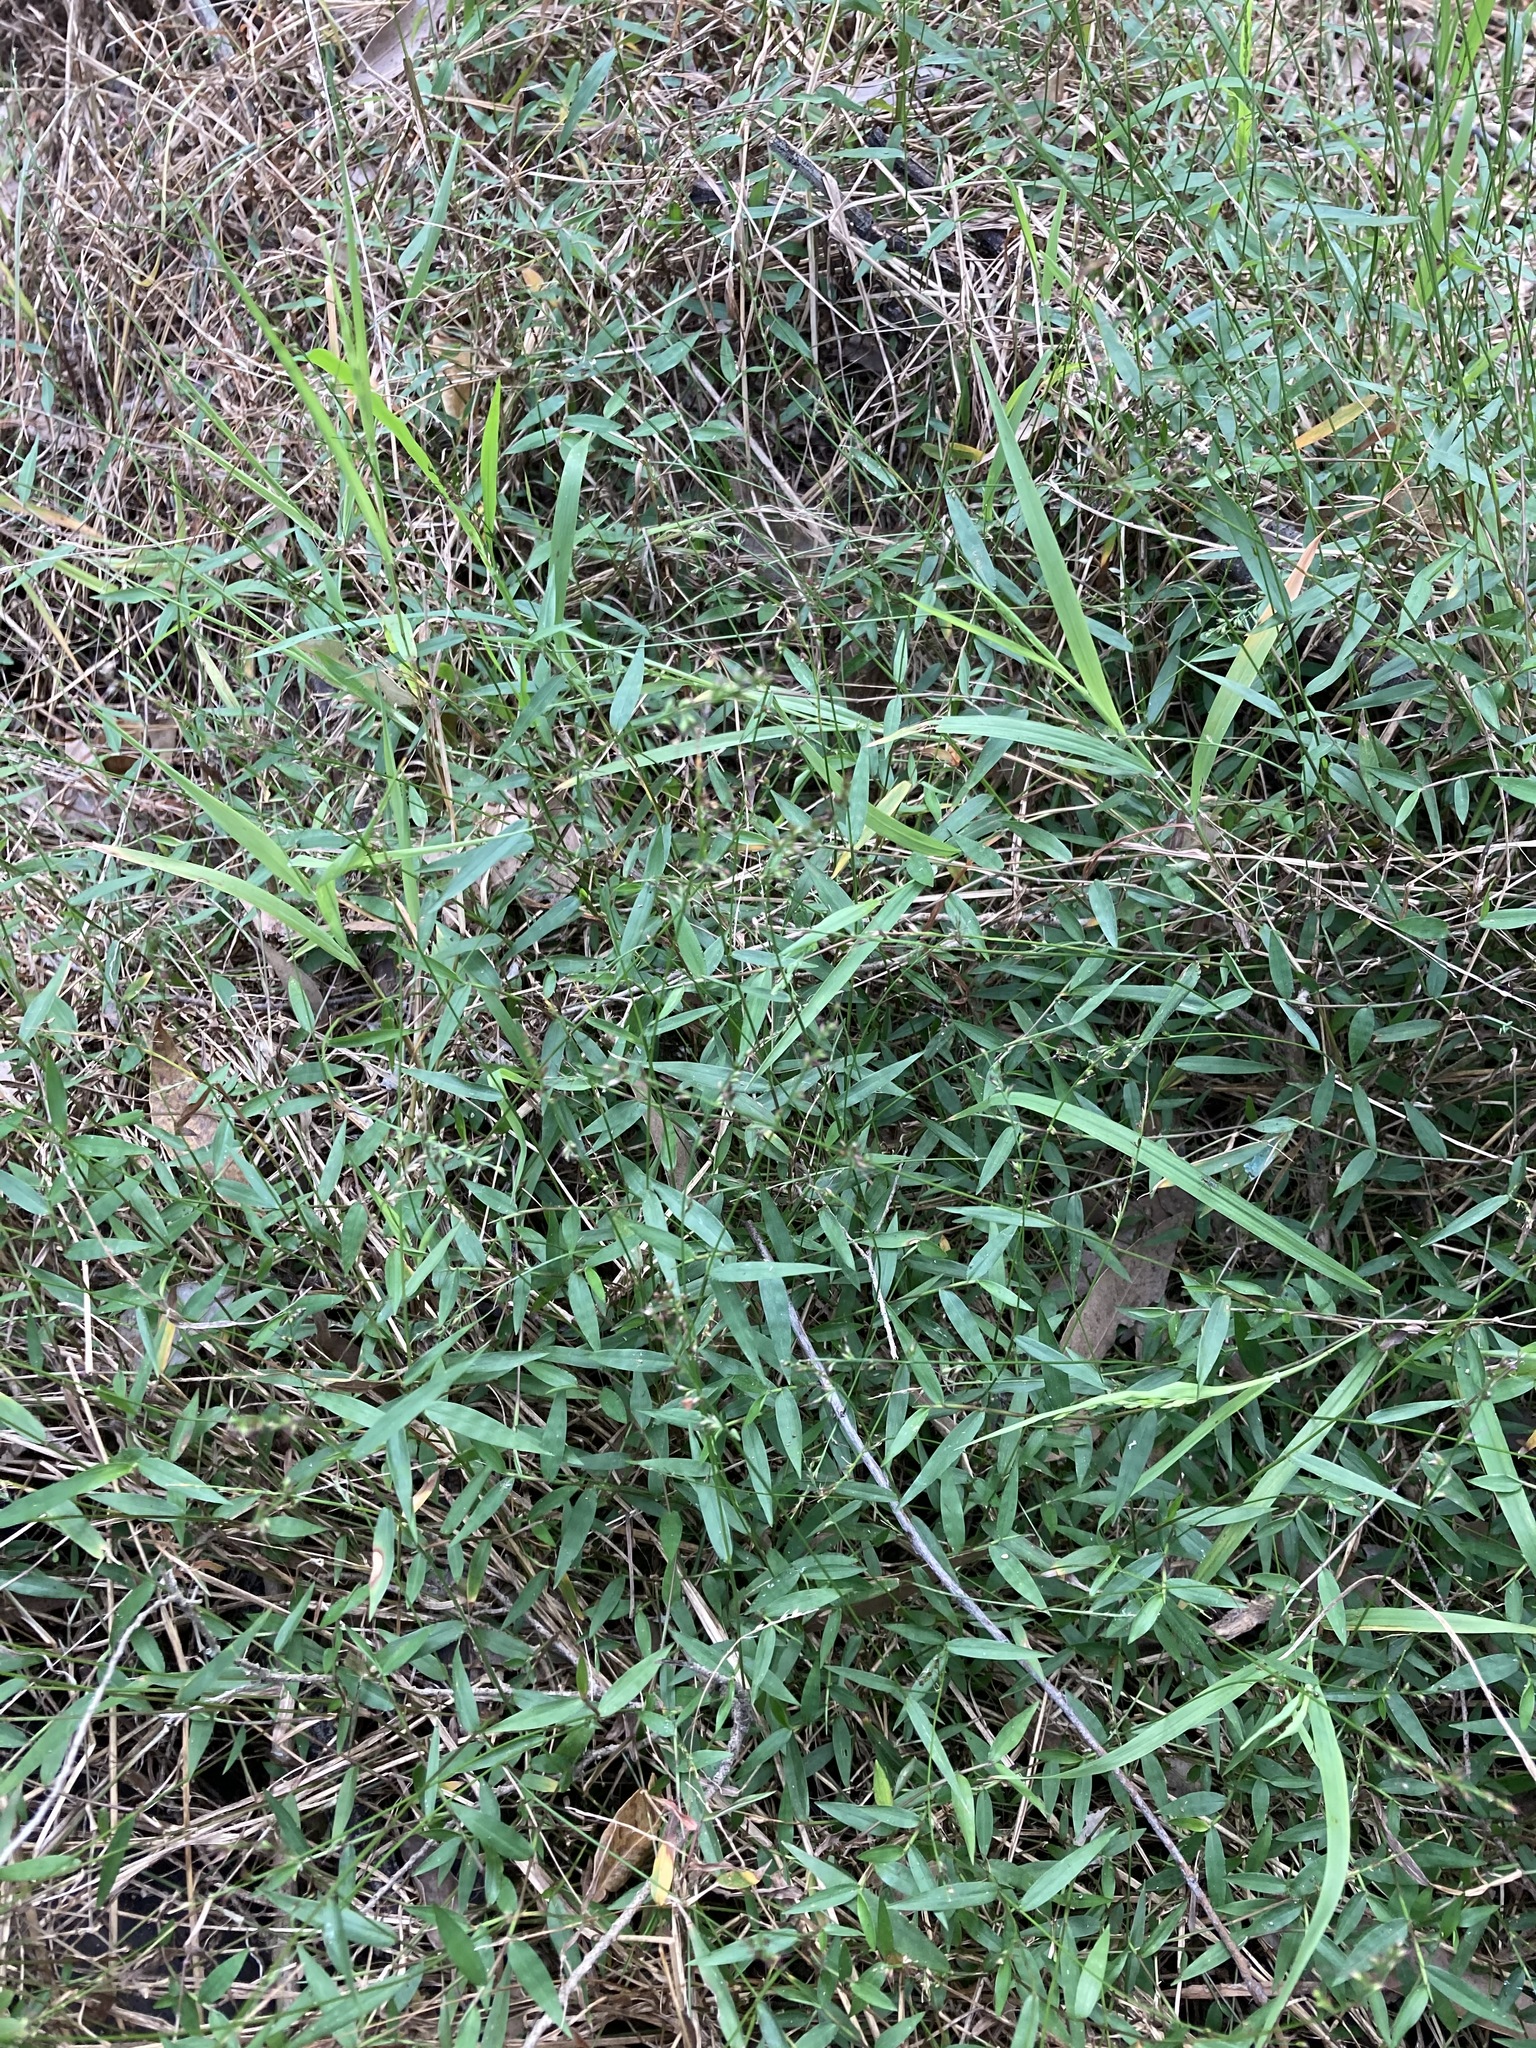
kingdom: Plantae
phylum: Tracheophyta
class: Liliopsida
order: Poales
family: Poaceae
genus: Oplismenus
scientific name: Oplismenus hirtellus
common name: Basketgrass
